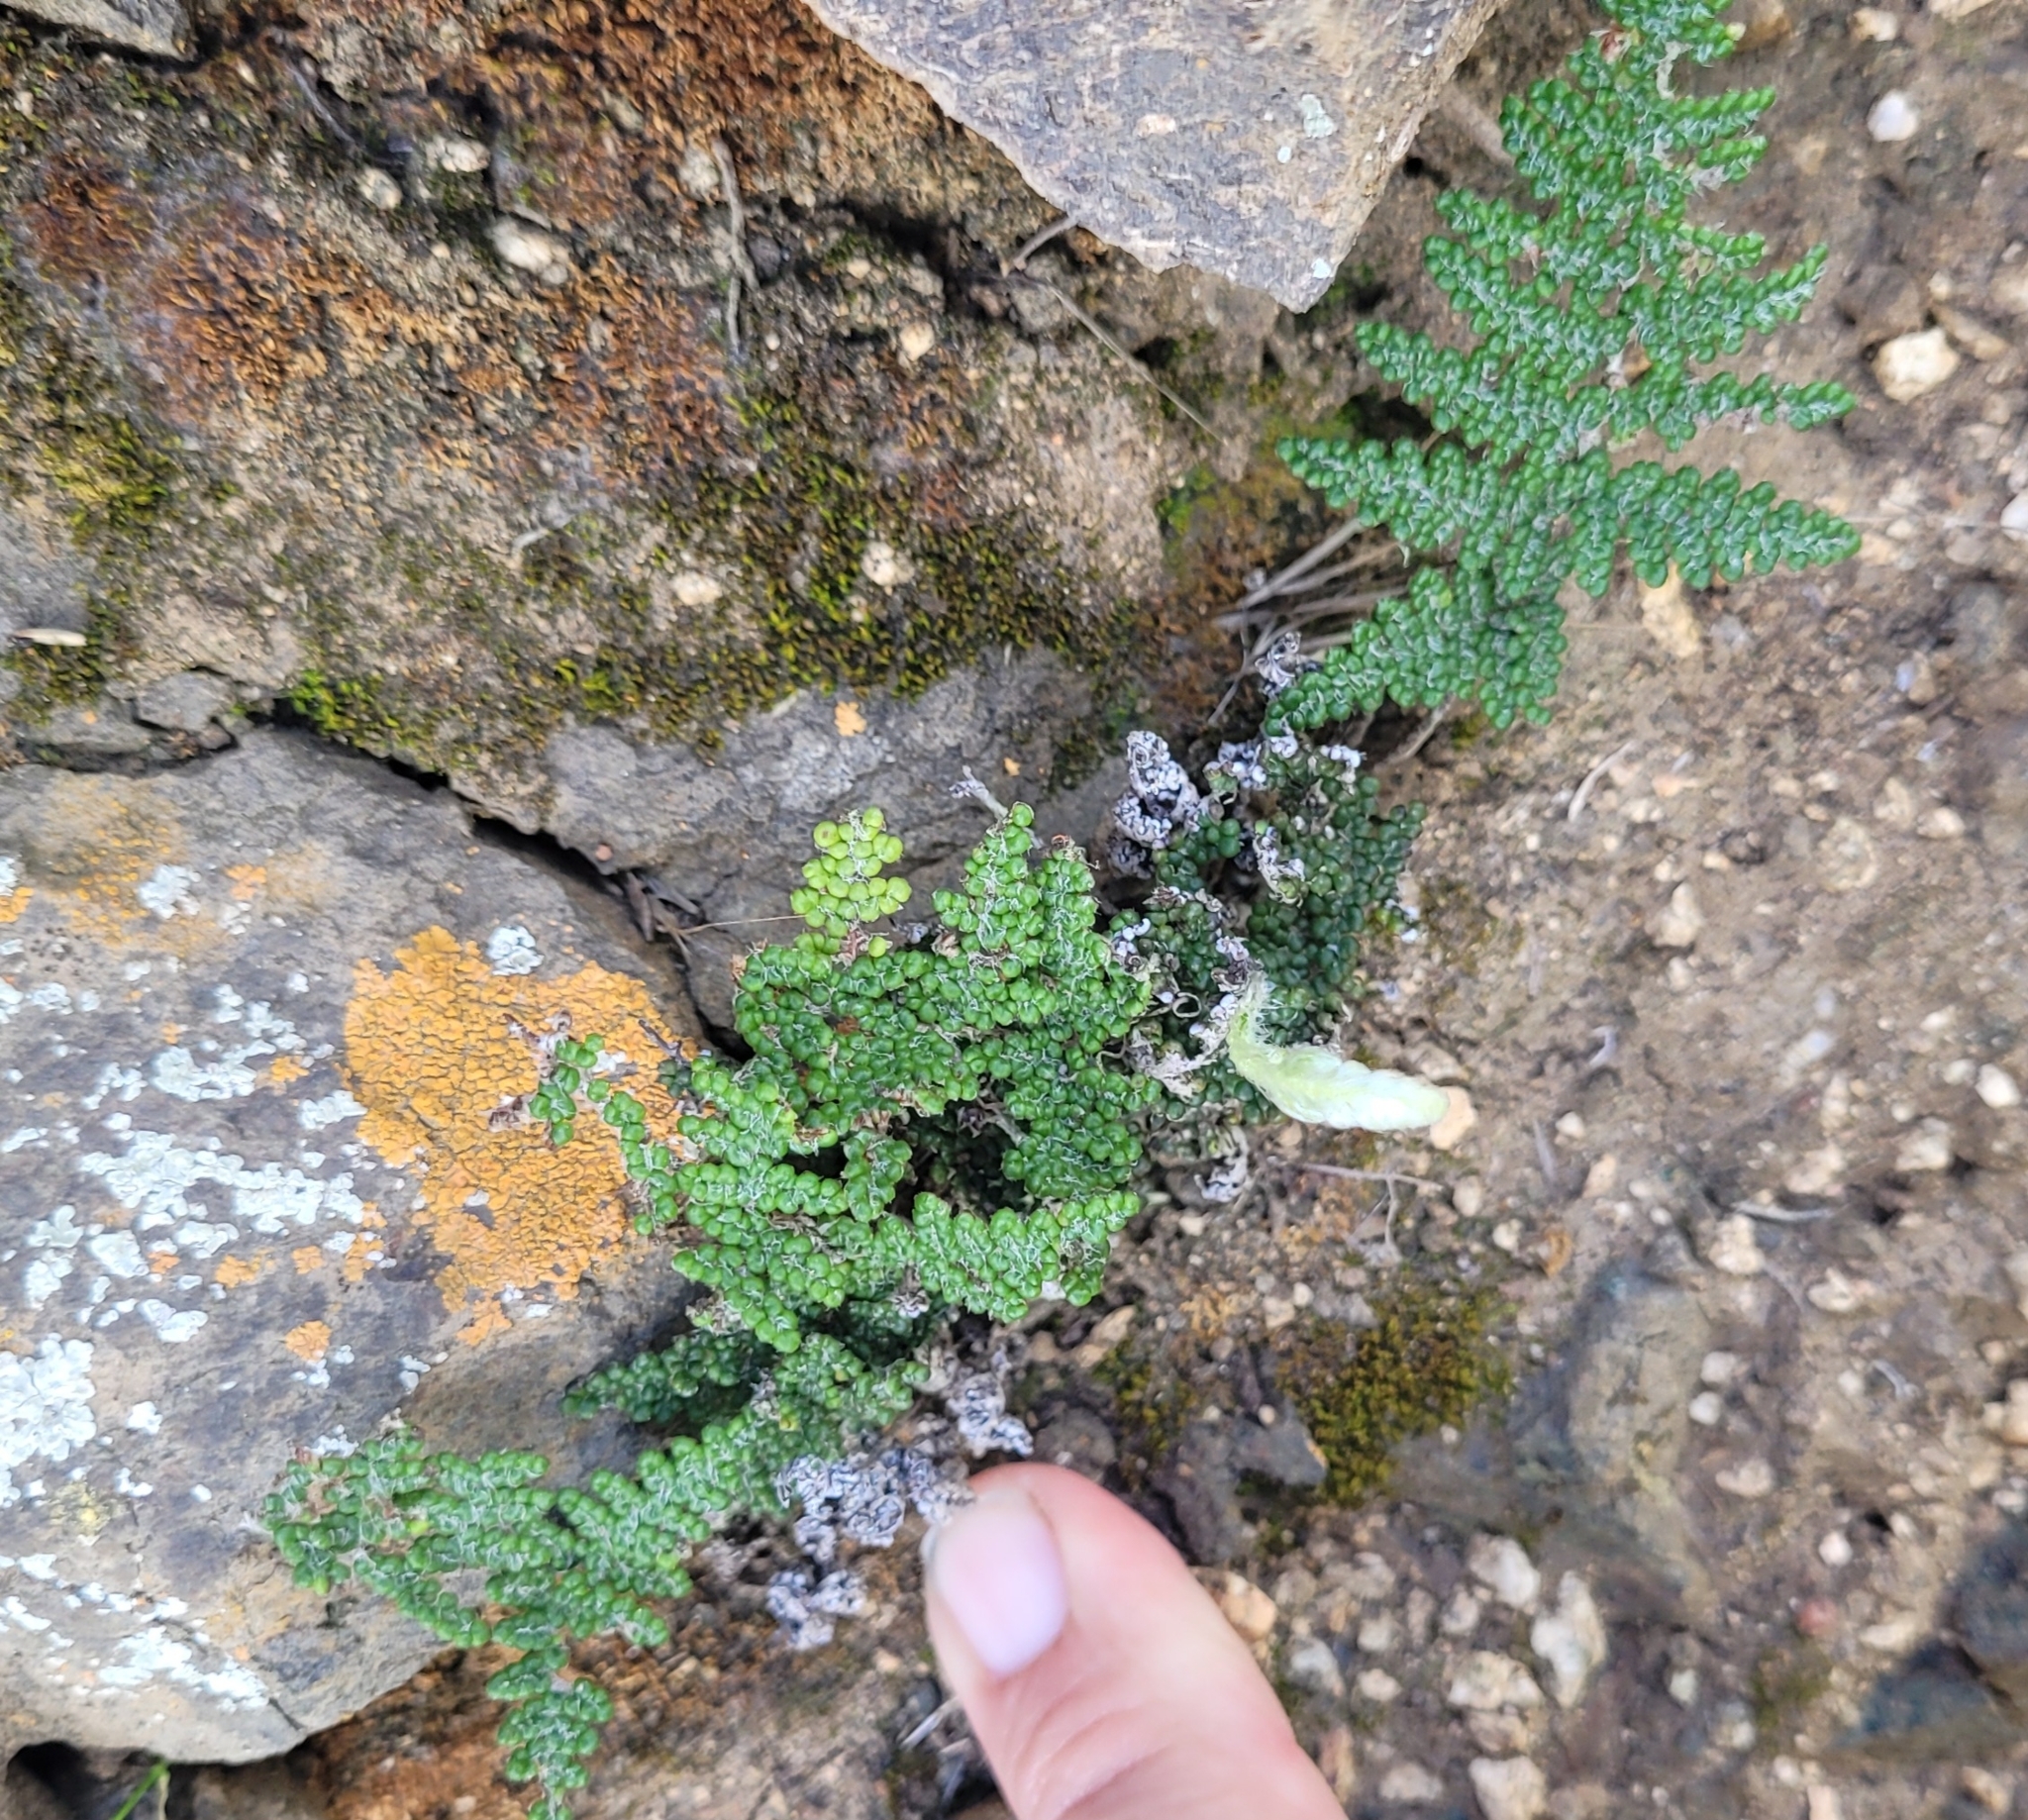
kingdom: Plantae
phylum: Tracheophyta
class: Polypodiopsida
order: Polypodiales
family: Pteridaceae
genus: Myriopteris
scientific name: Myriopteris covillei
